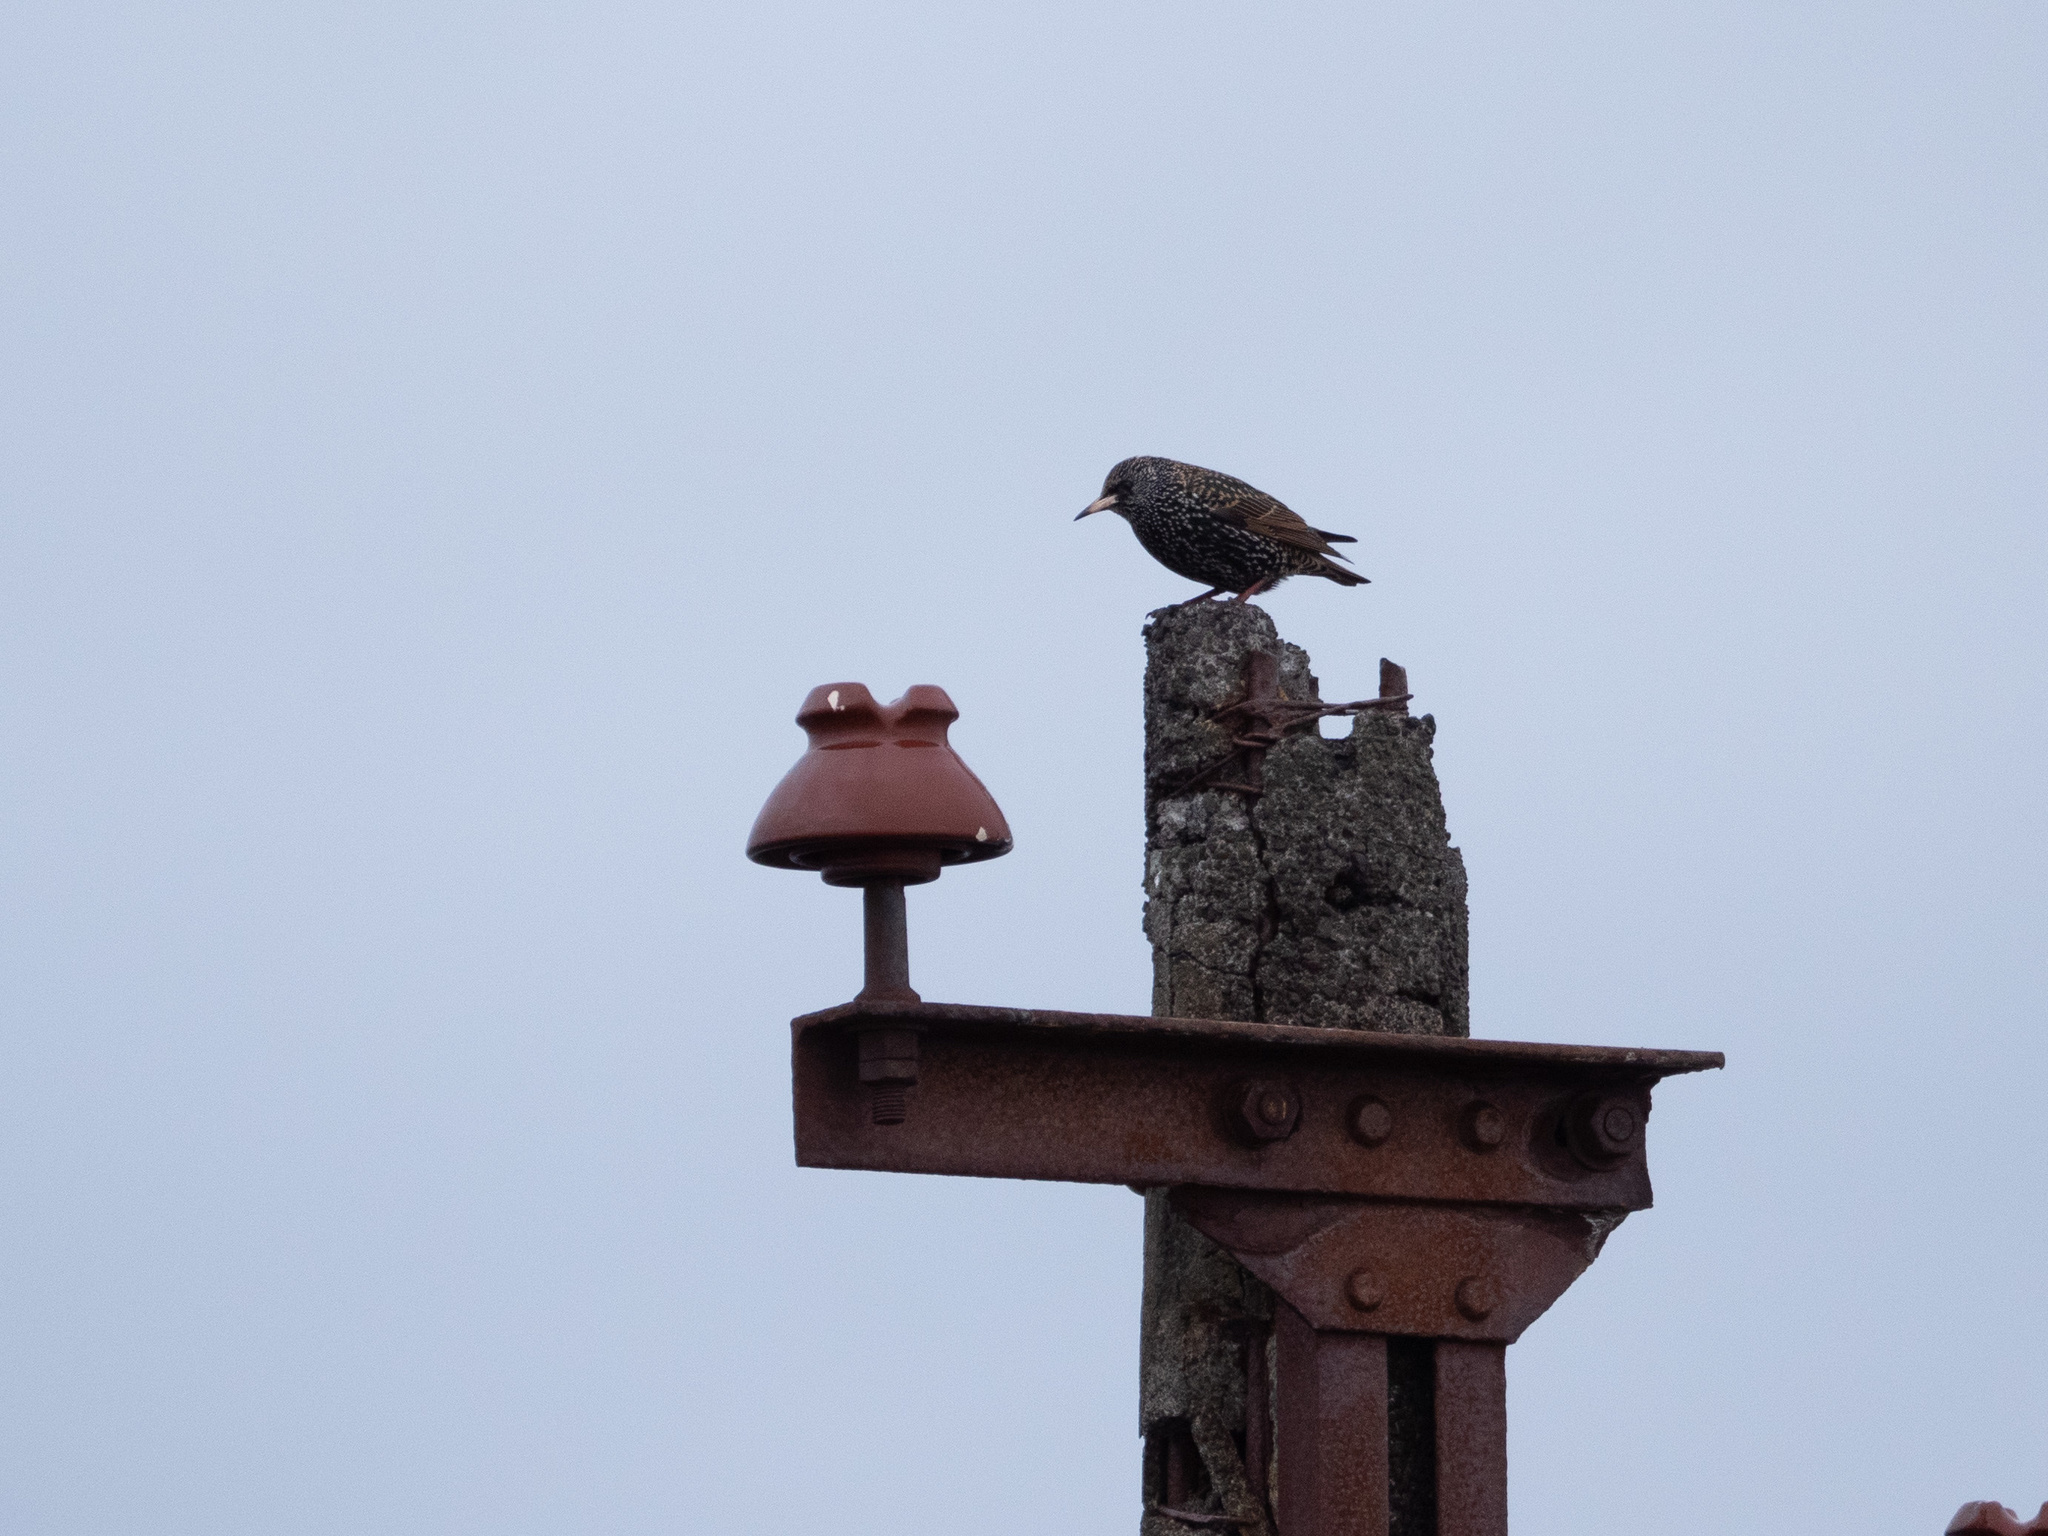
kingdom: Animalia
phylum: Chordata
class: Aves
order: Passeriformes
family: Sturnidae
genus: Sturnus
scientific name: Sturnus vulgaris
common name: Common starling
